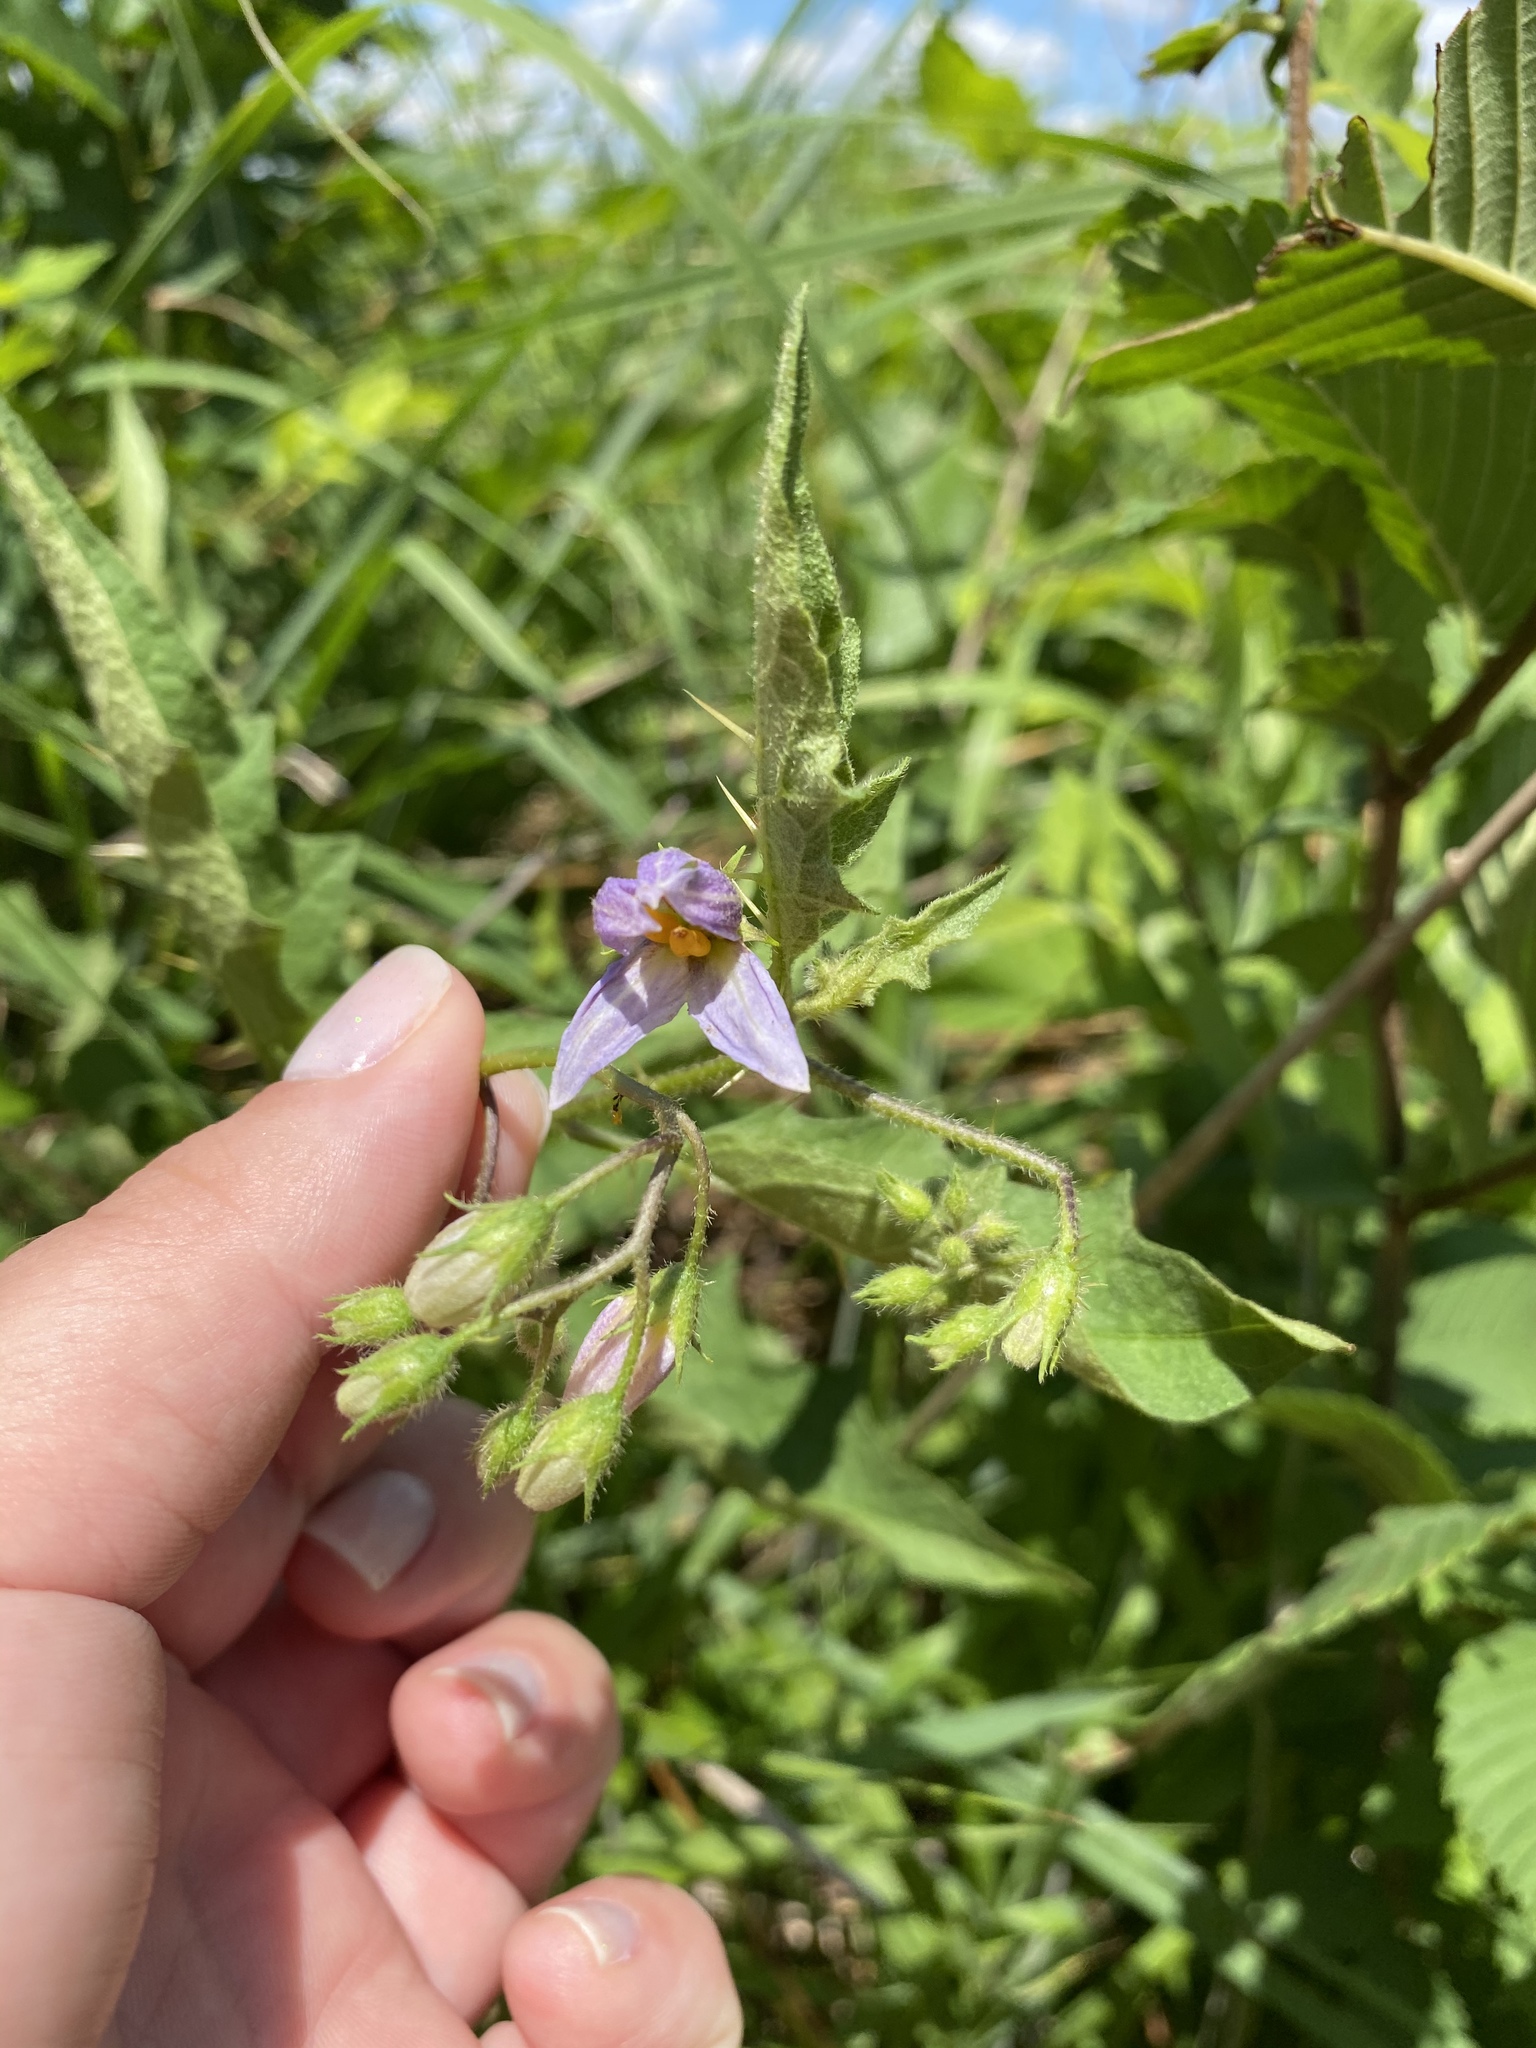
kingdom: Plantae
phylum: Tracheophyta
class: Magnoliopsida
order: Solanales
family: Solanaceae
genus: Solanum
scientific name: Solanum carolinense
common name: Horse-nettle
